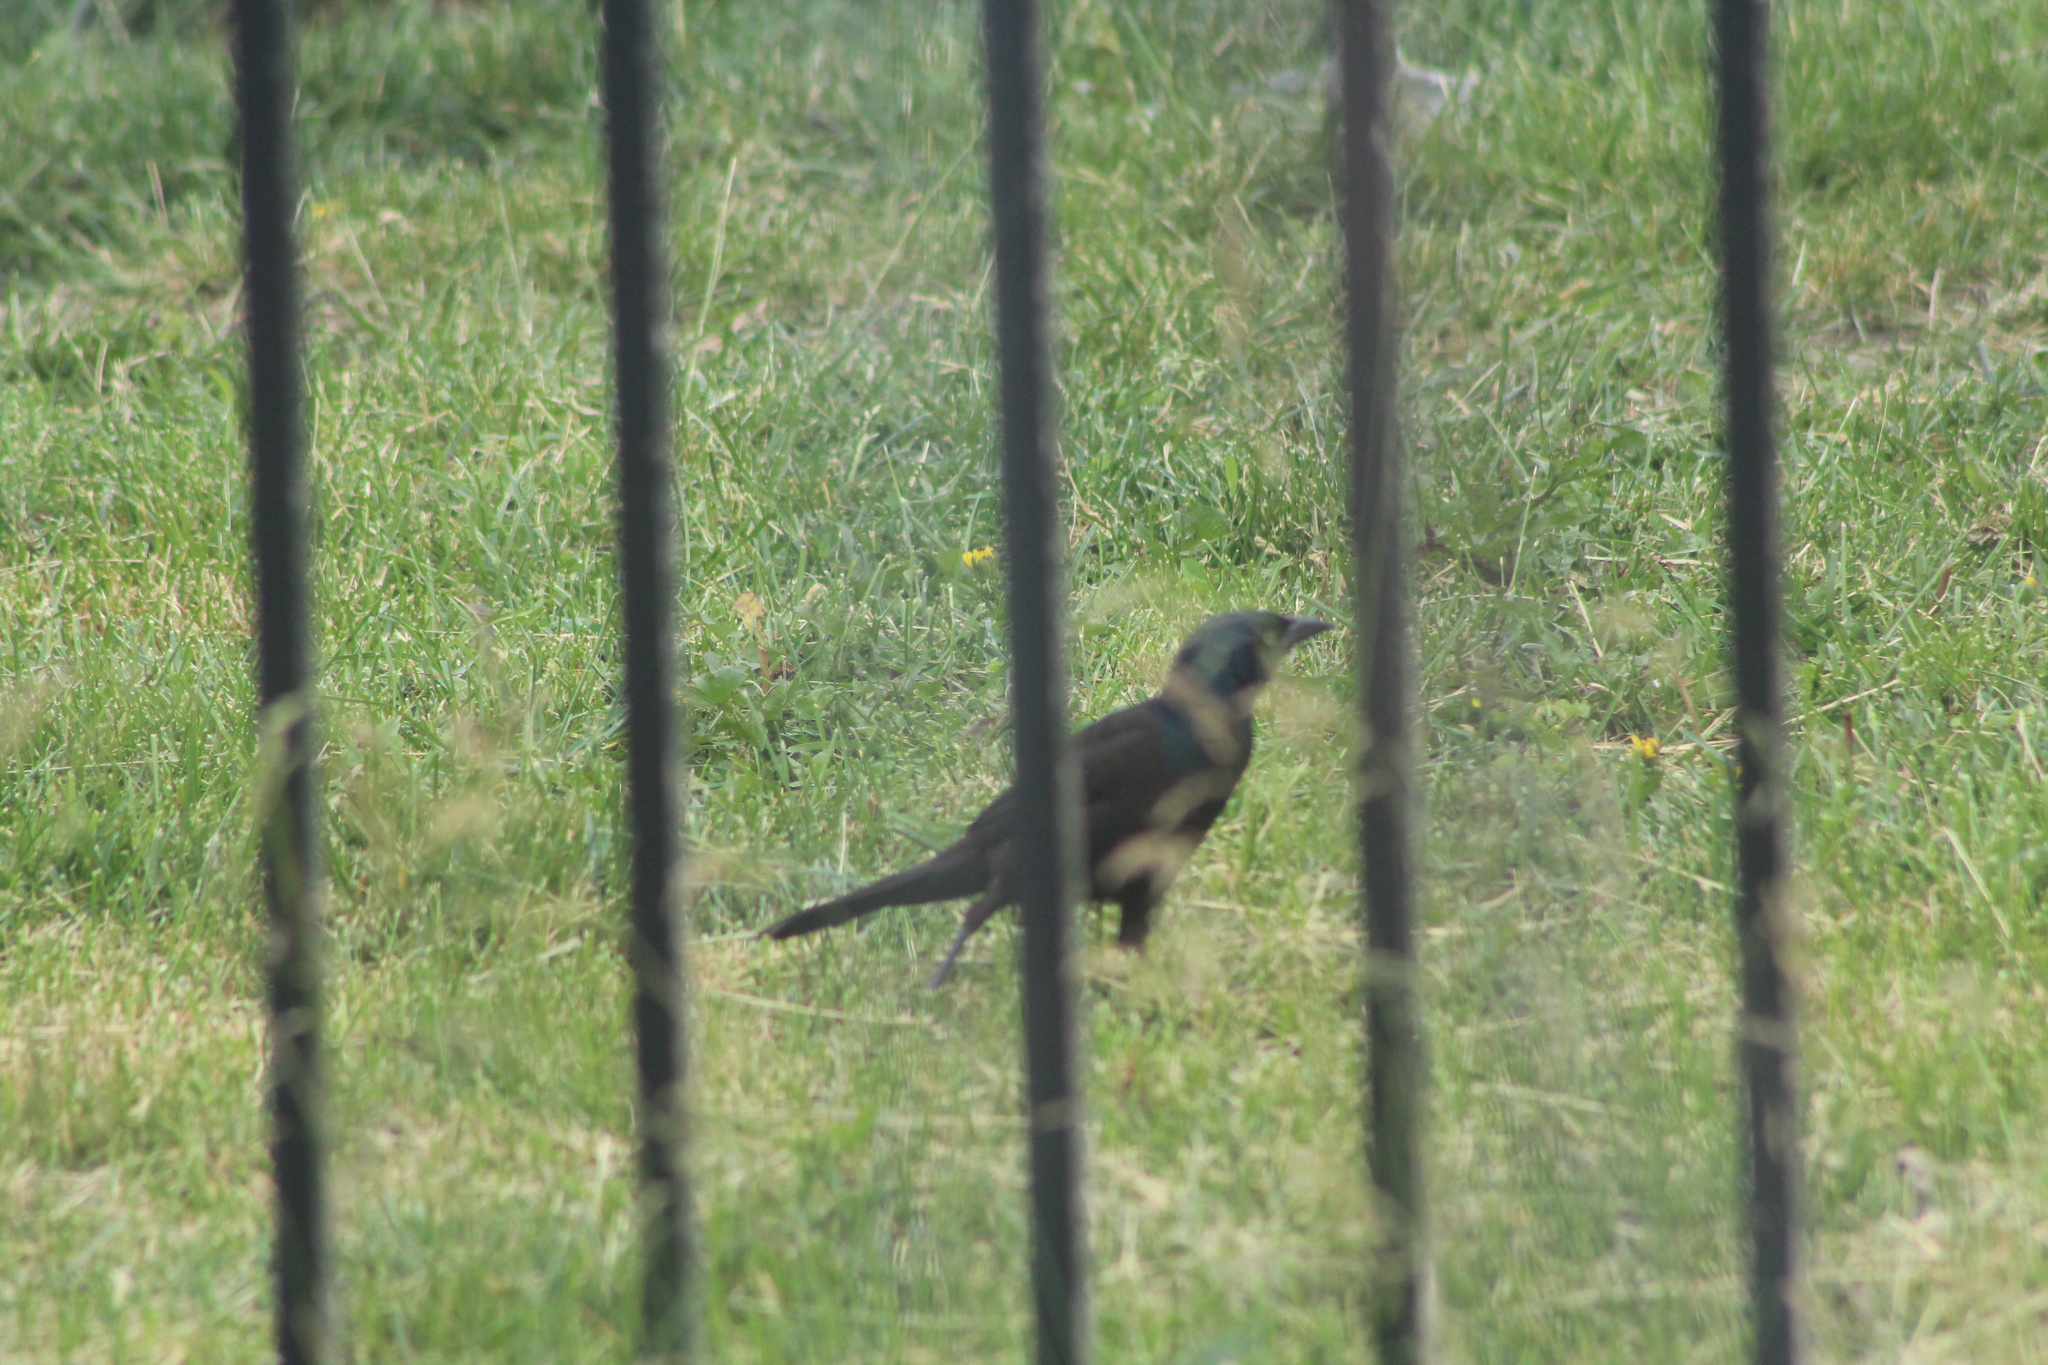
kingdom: Animalia
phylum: Chordata
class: Aves
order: Passeriformes
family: Icteridae
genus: Quiscalus
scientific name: Quiscalus quiscula
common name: Common grackle
